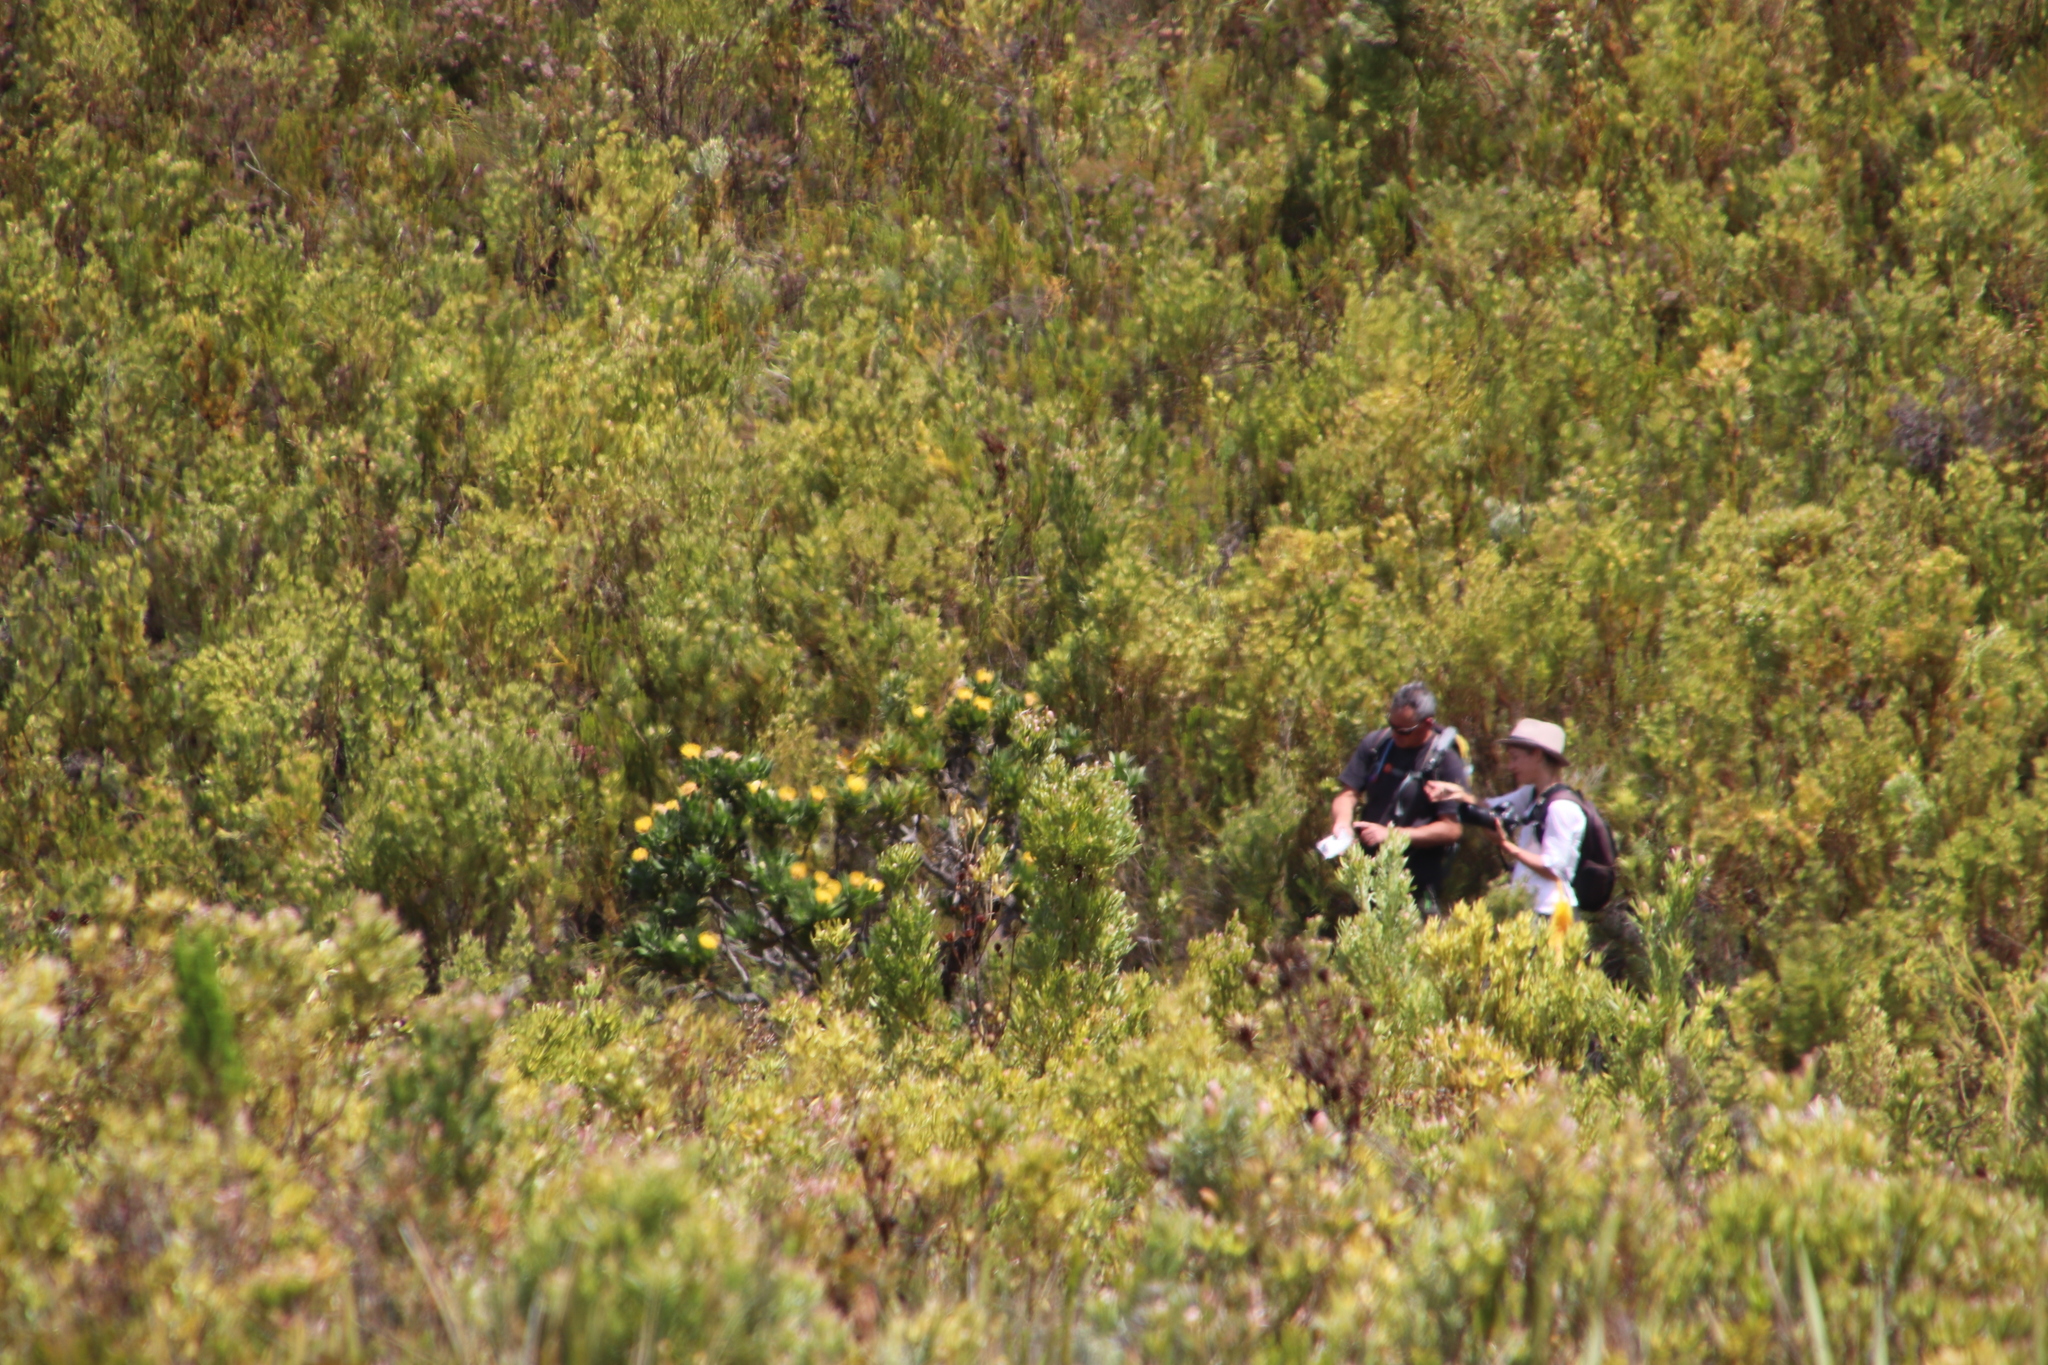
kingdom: Plantae
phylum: Tracheophyta
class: Magnoliopsida
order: Proteales
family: Proteaceae
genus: Leucospermum
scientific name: Leucospermum conocarpodendron
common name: Tree pincushion
